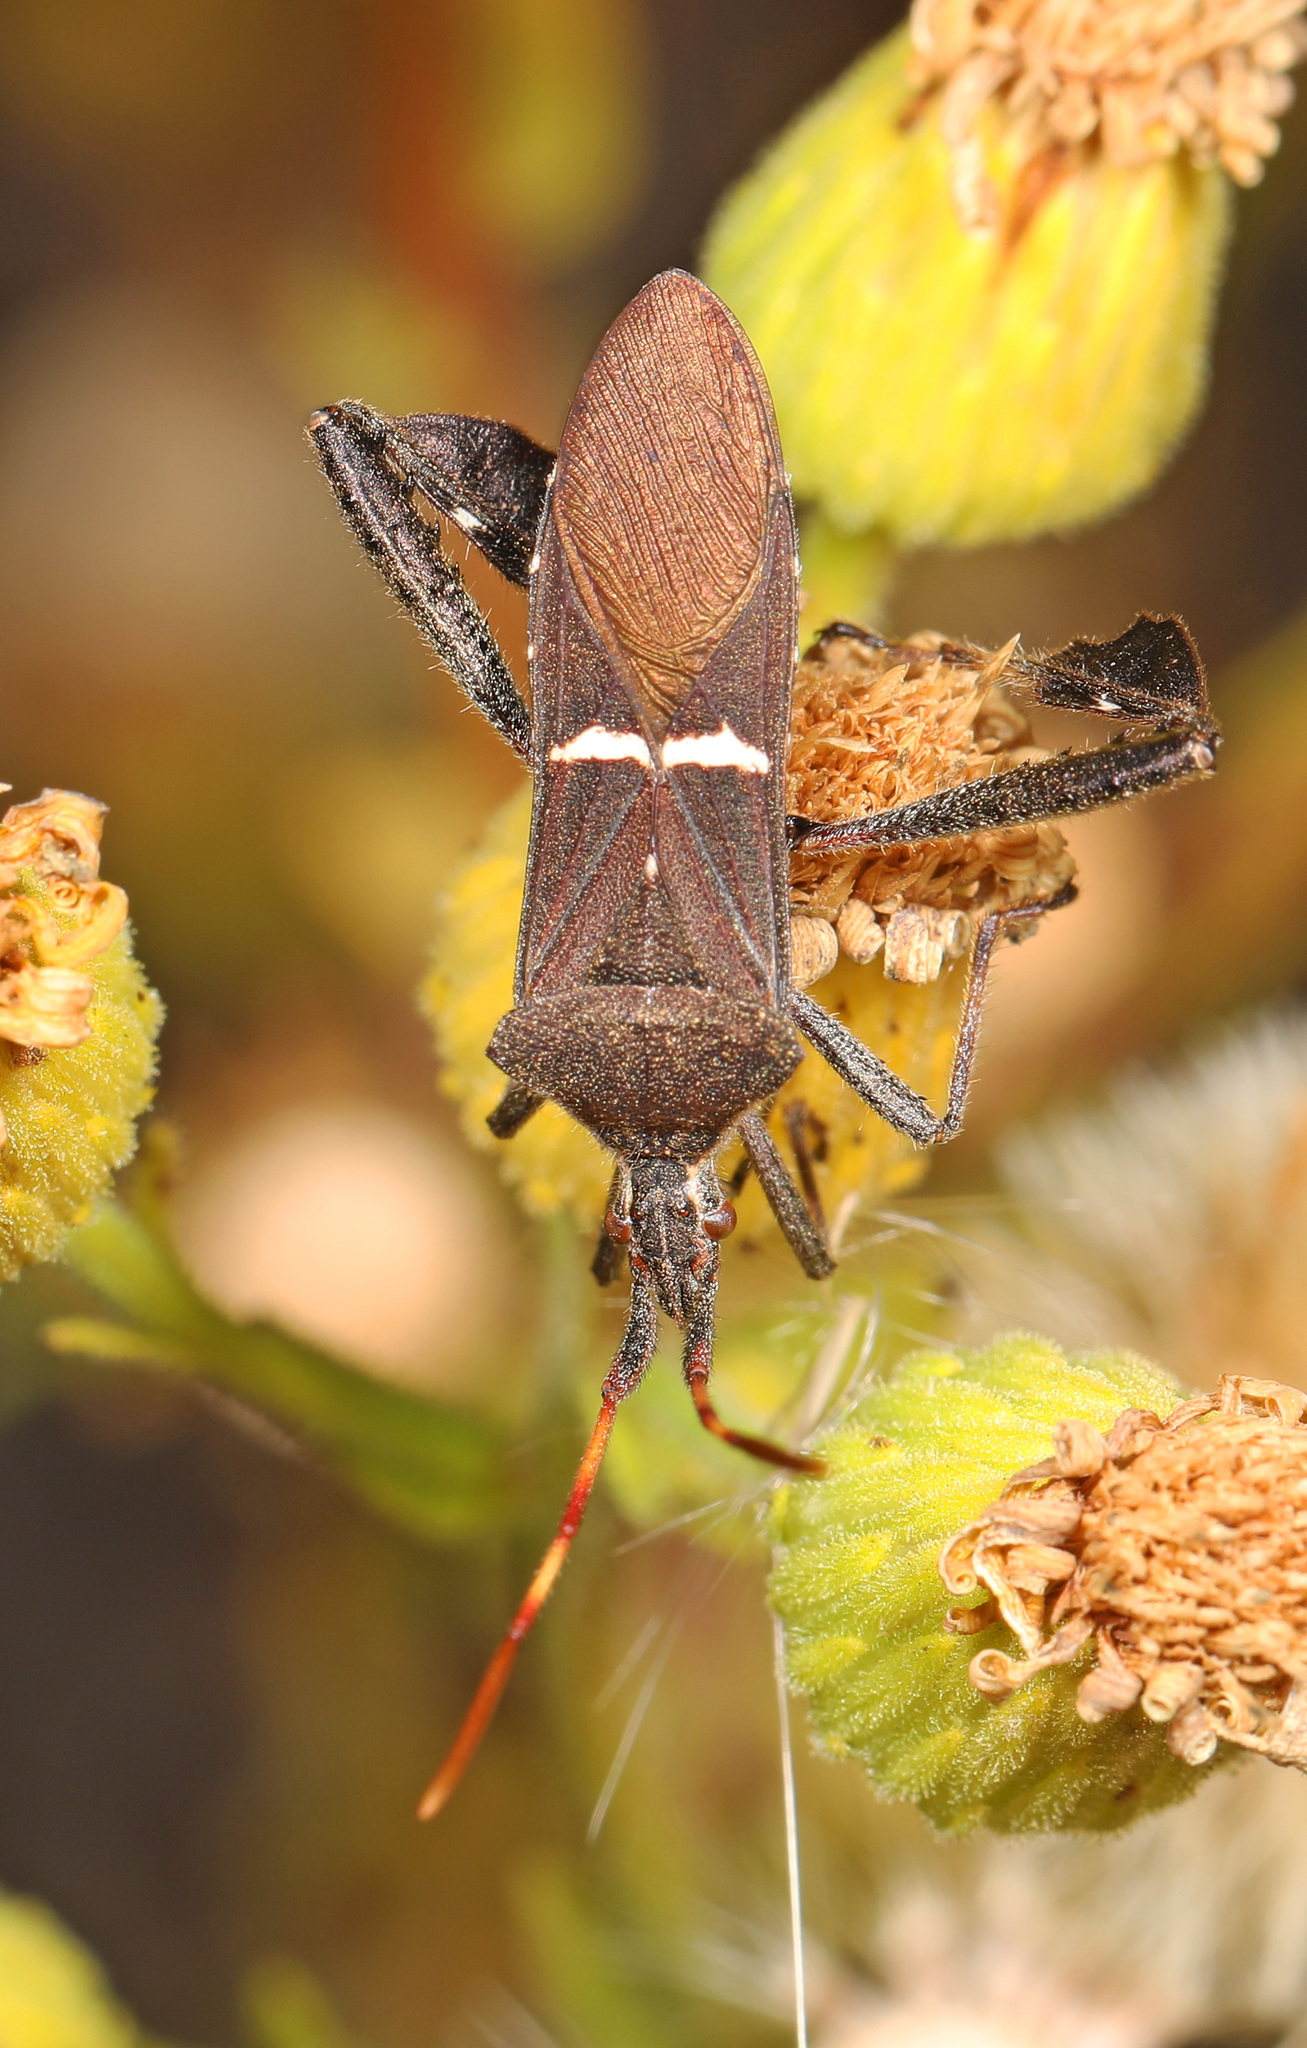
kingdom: Animalia
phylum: Arthropoda
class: Insecta
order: Hemiptera
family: Coreidae
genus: Leptoglossus
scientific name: Leptoglossus phyllopus
